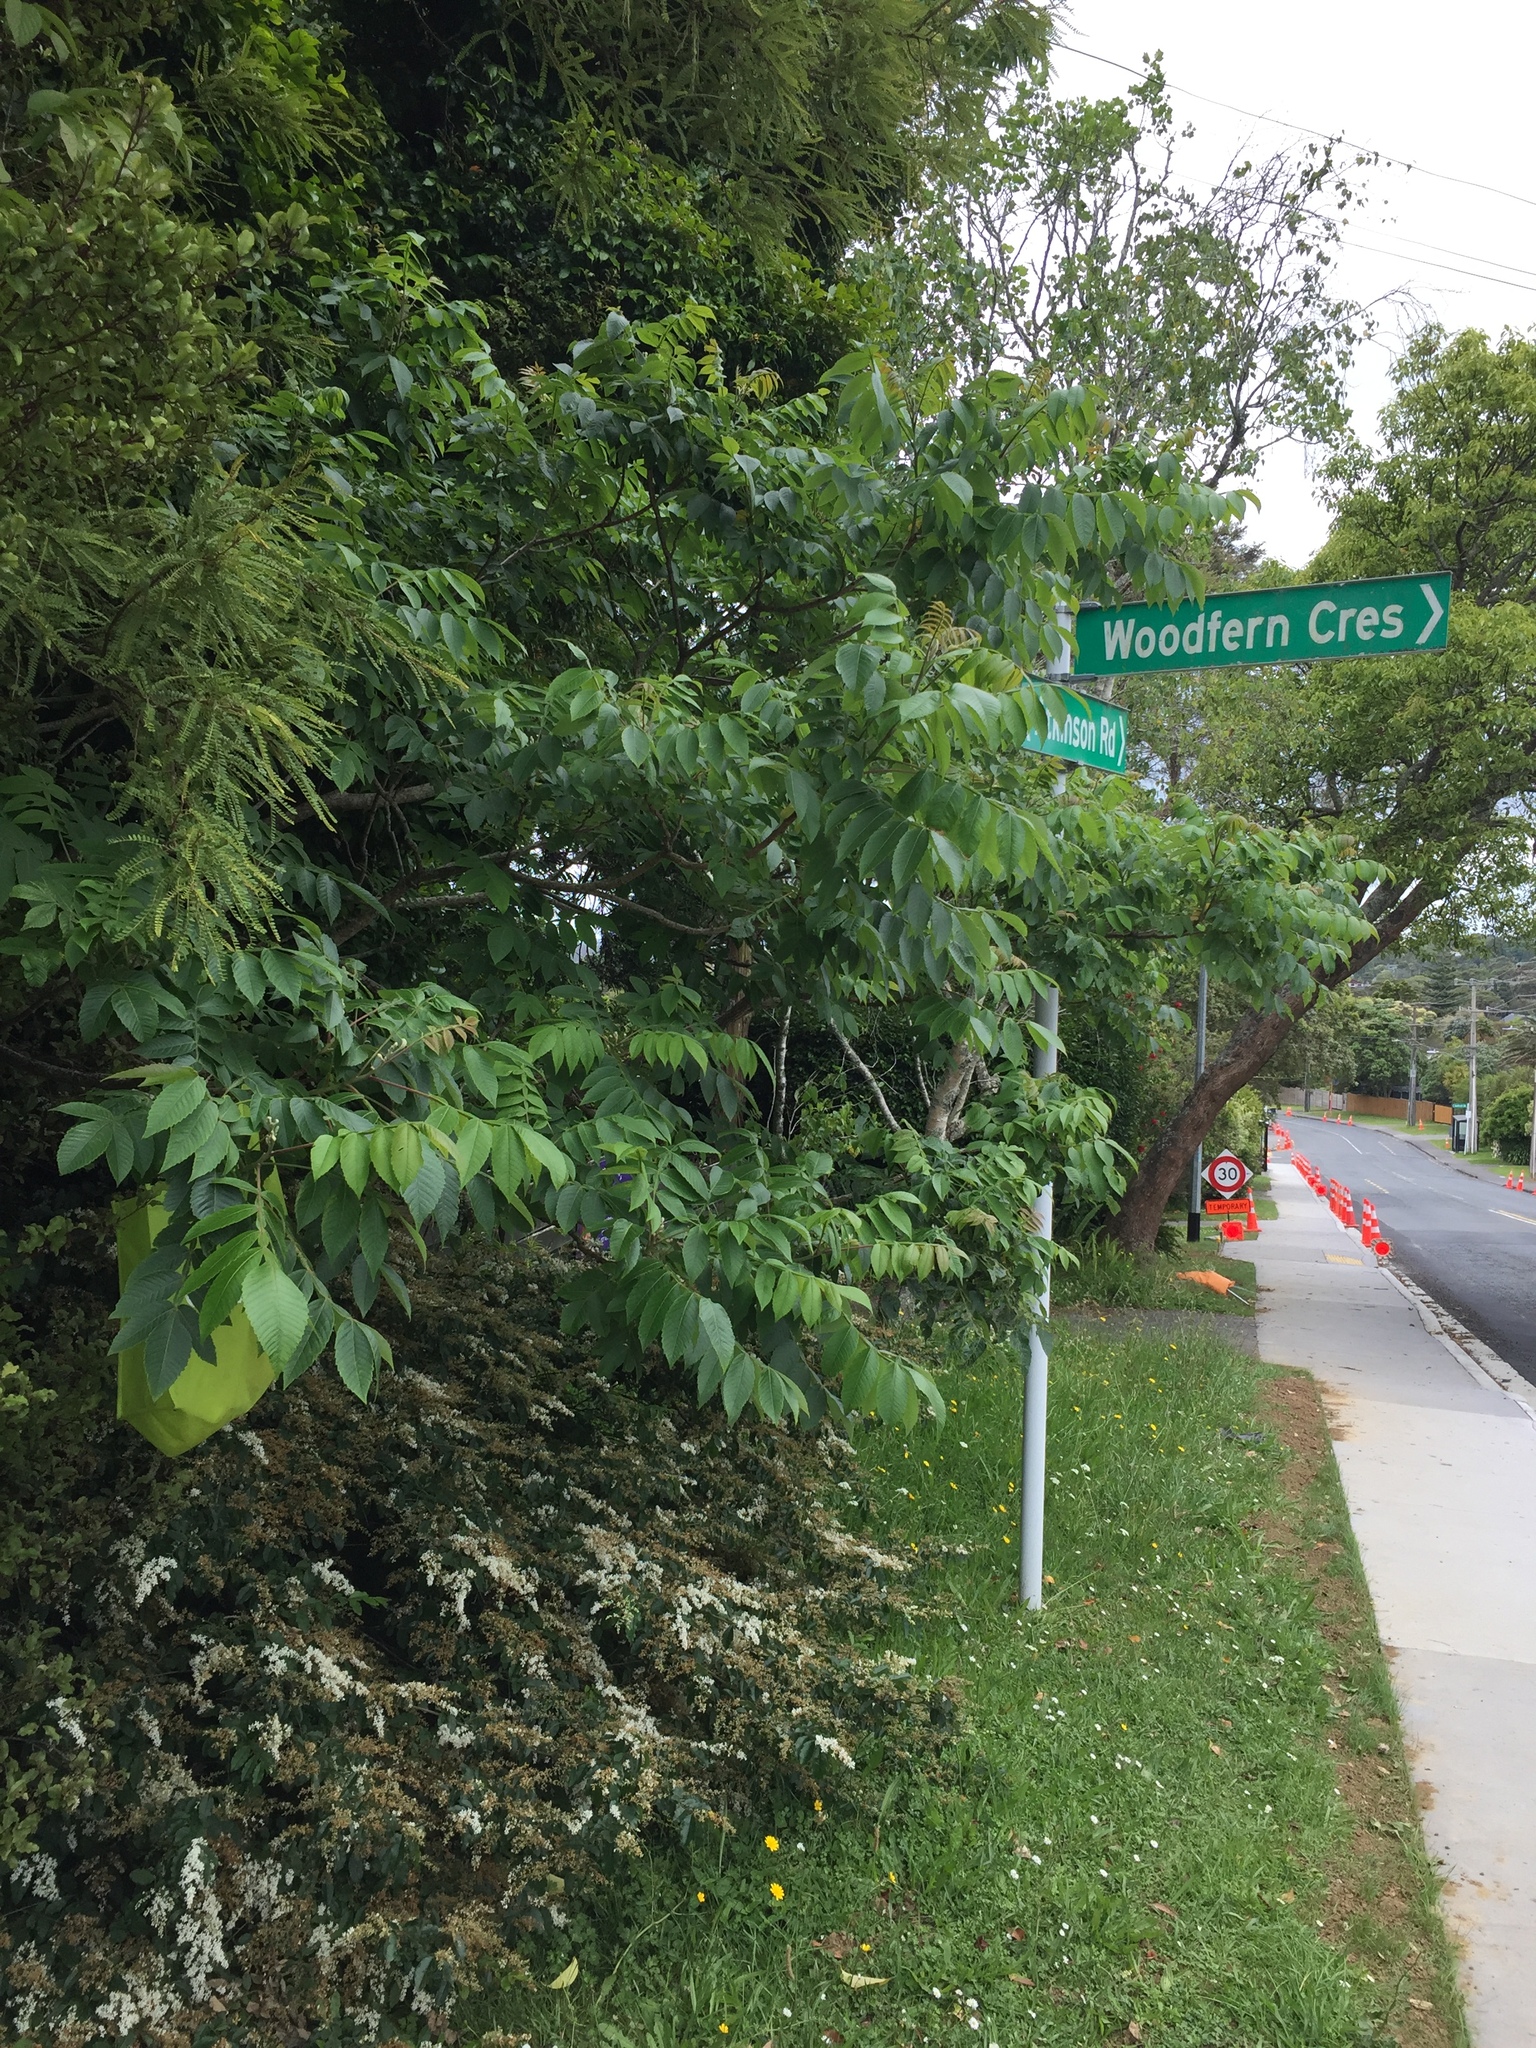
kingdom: Plantae
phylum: Tracheophyta
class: Magnoliopsida
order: Sapindales
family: Anacardiaceae
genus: Rhus
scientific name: Rhus chinensis
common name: Chinese gall
